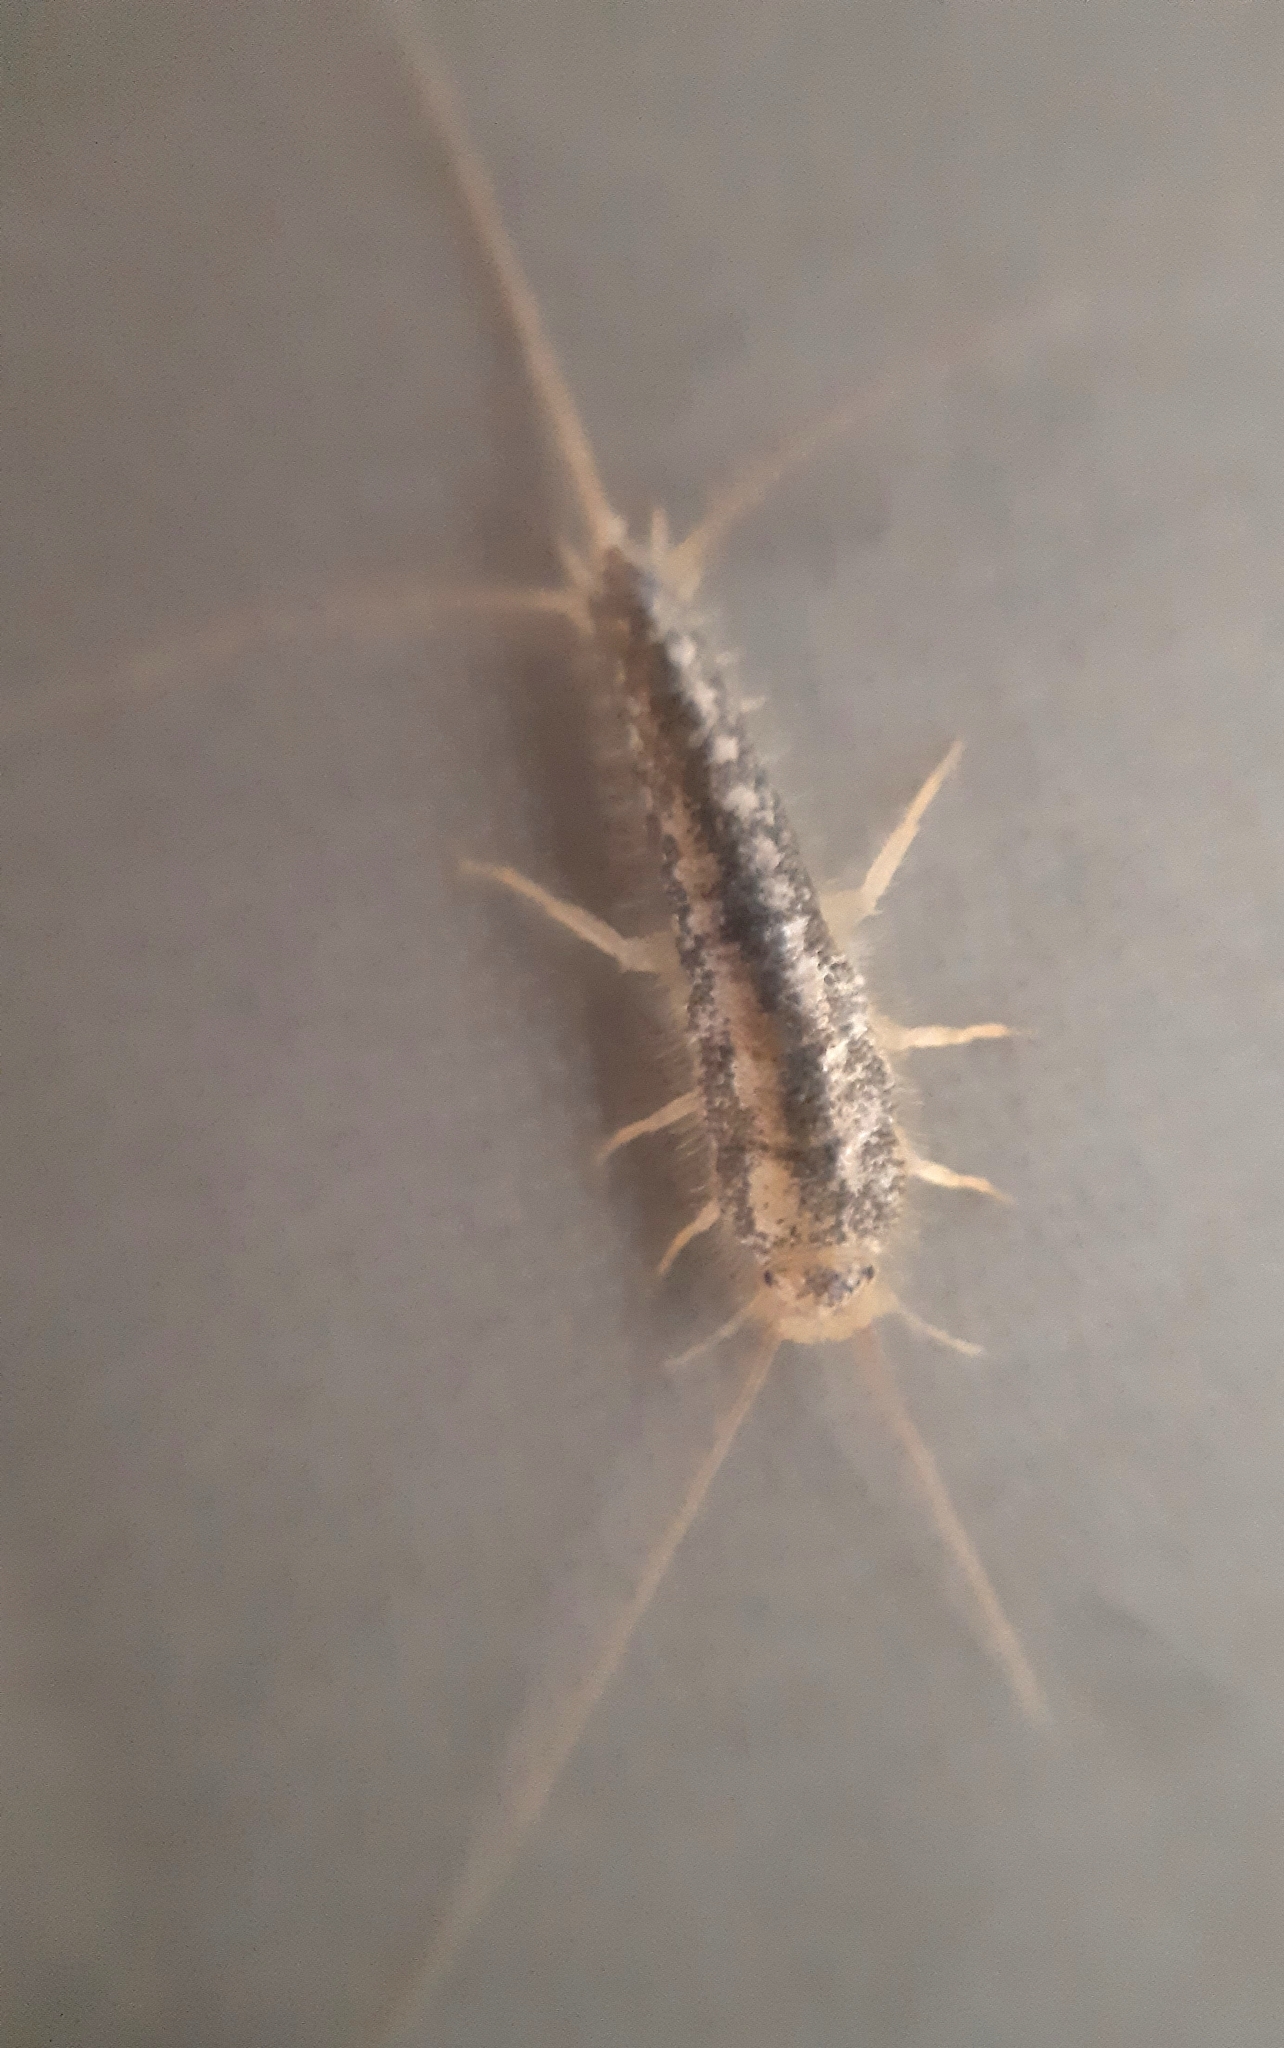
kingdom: Animalia
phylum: Arthropoda
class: Insecta
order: Zygentoma
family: Lepismatidae
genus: Ctenolepisma
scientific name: Ctenolepisma longicaudatum
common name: Silverfish
